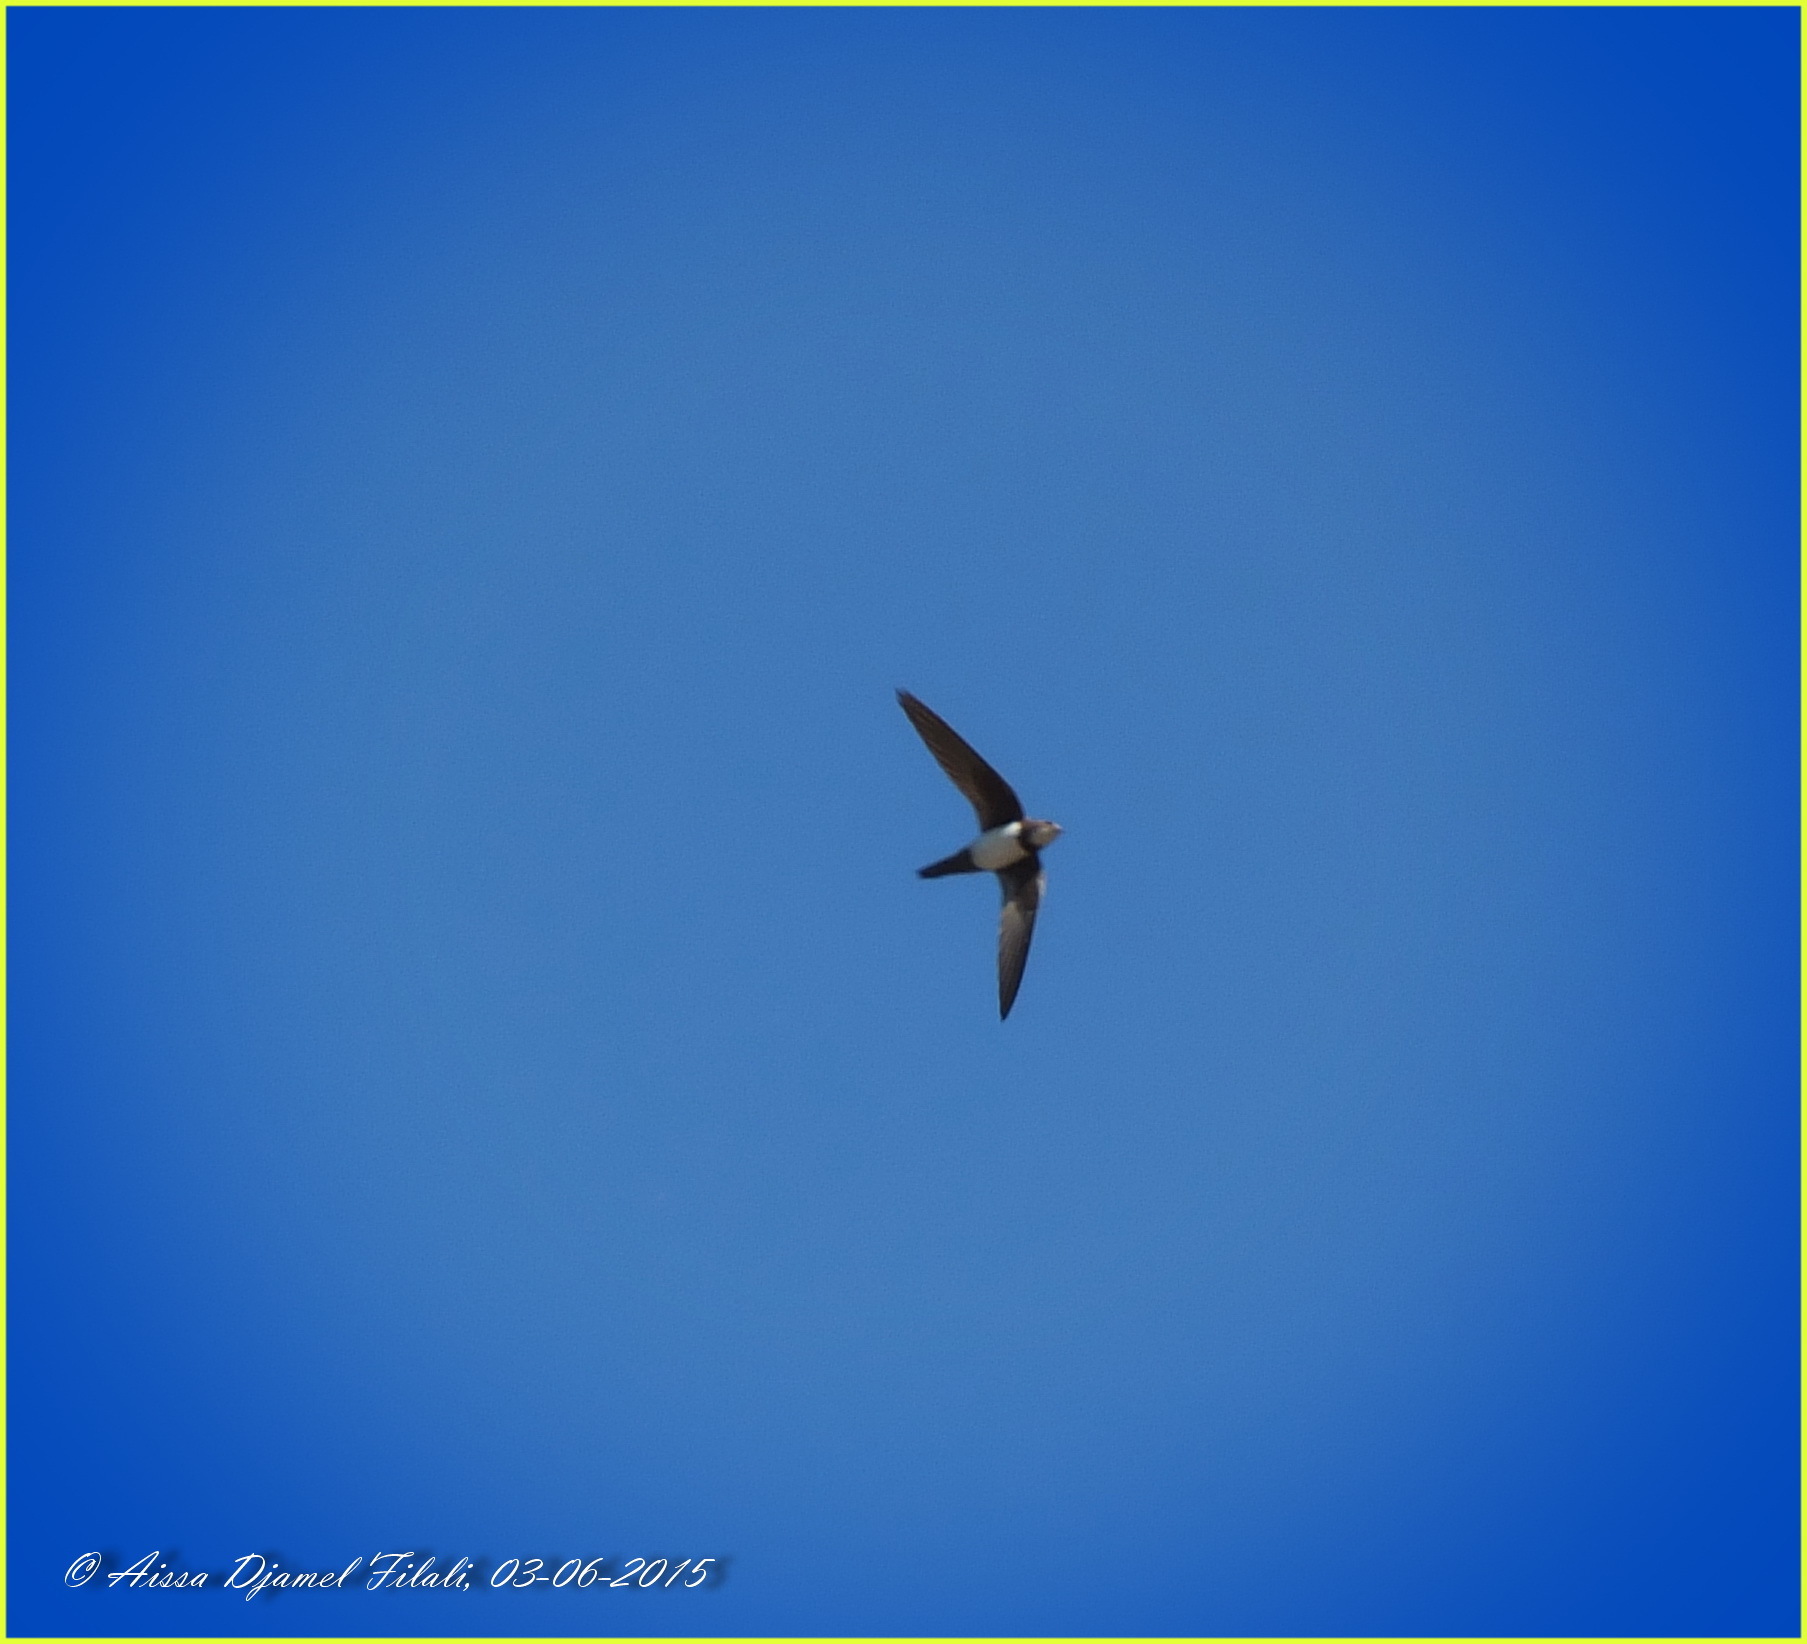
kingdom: Animalia
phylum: Chordata
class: Aves
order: Apodiformes
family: Apodidae
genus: Tachymarptis
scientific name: Tachymarptis melba
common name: Alpine swift
